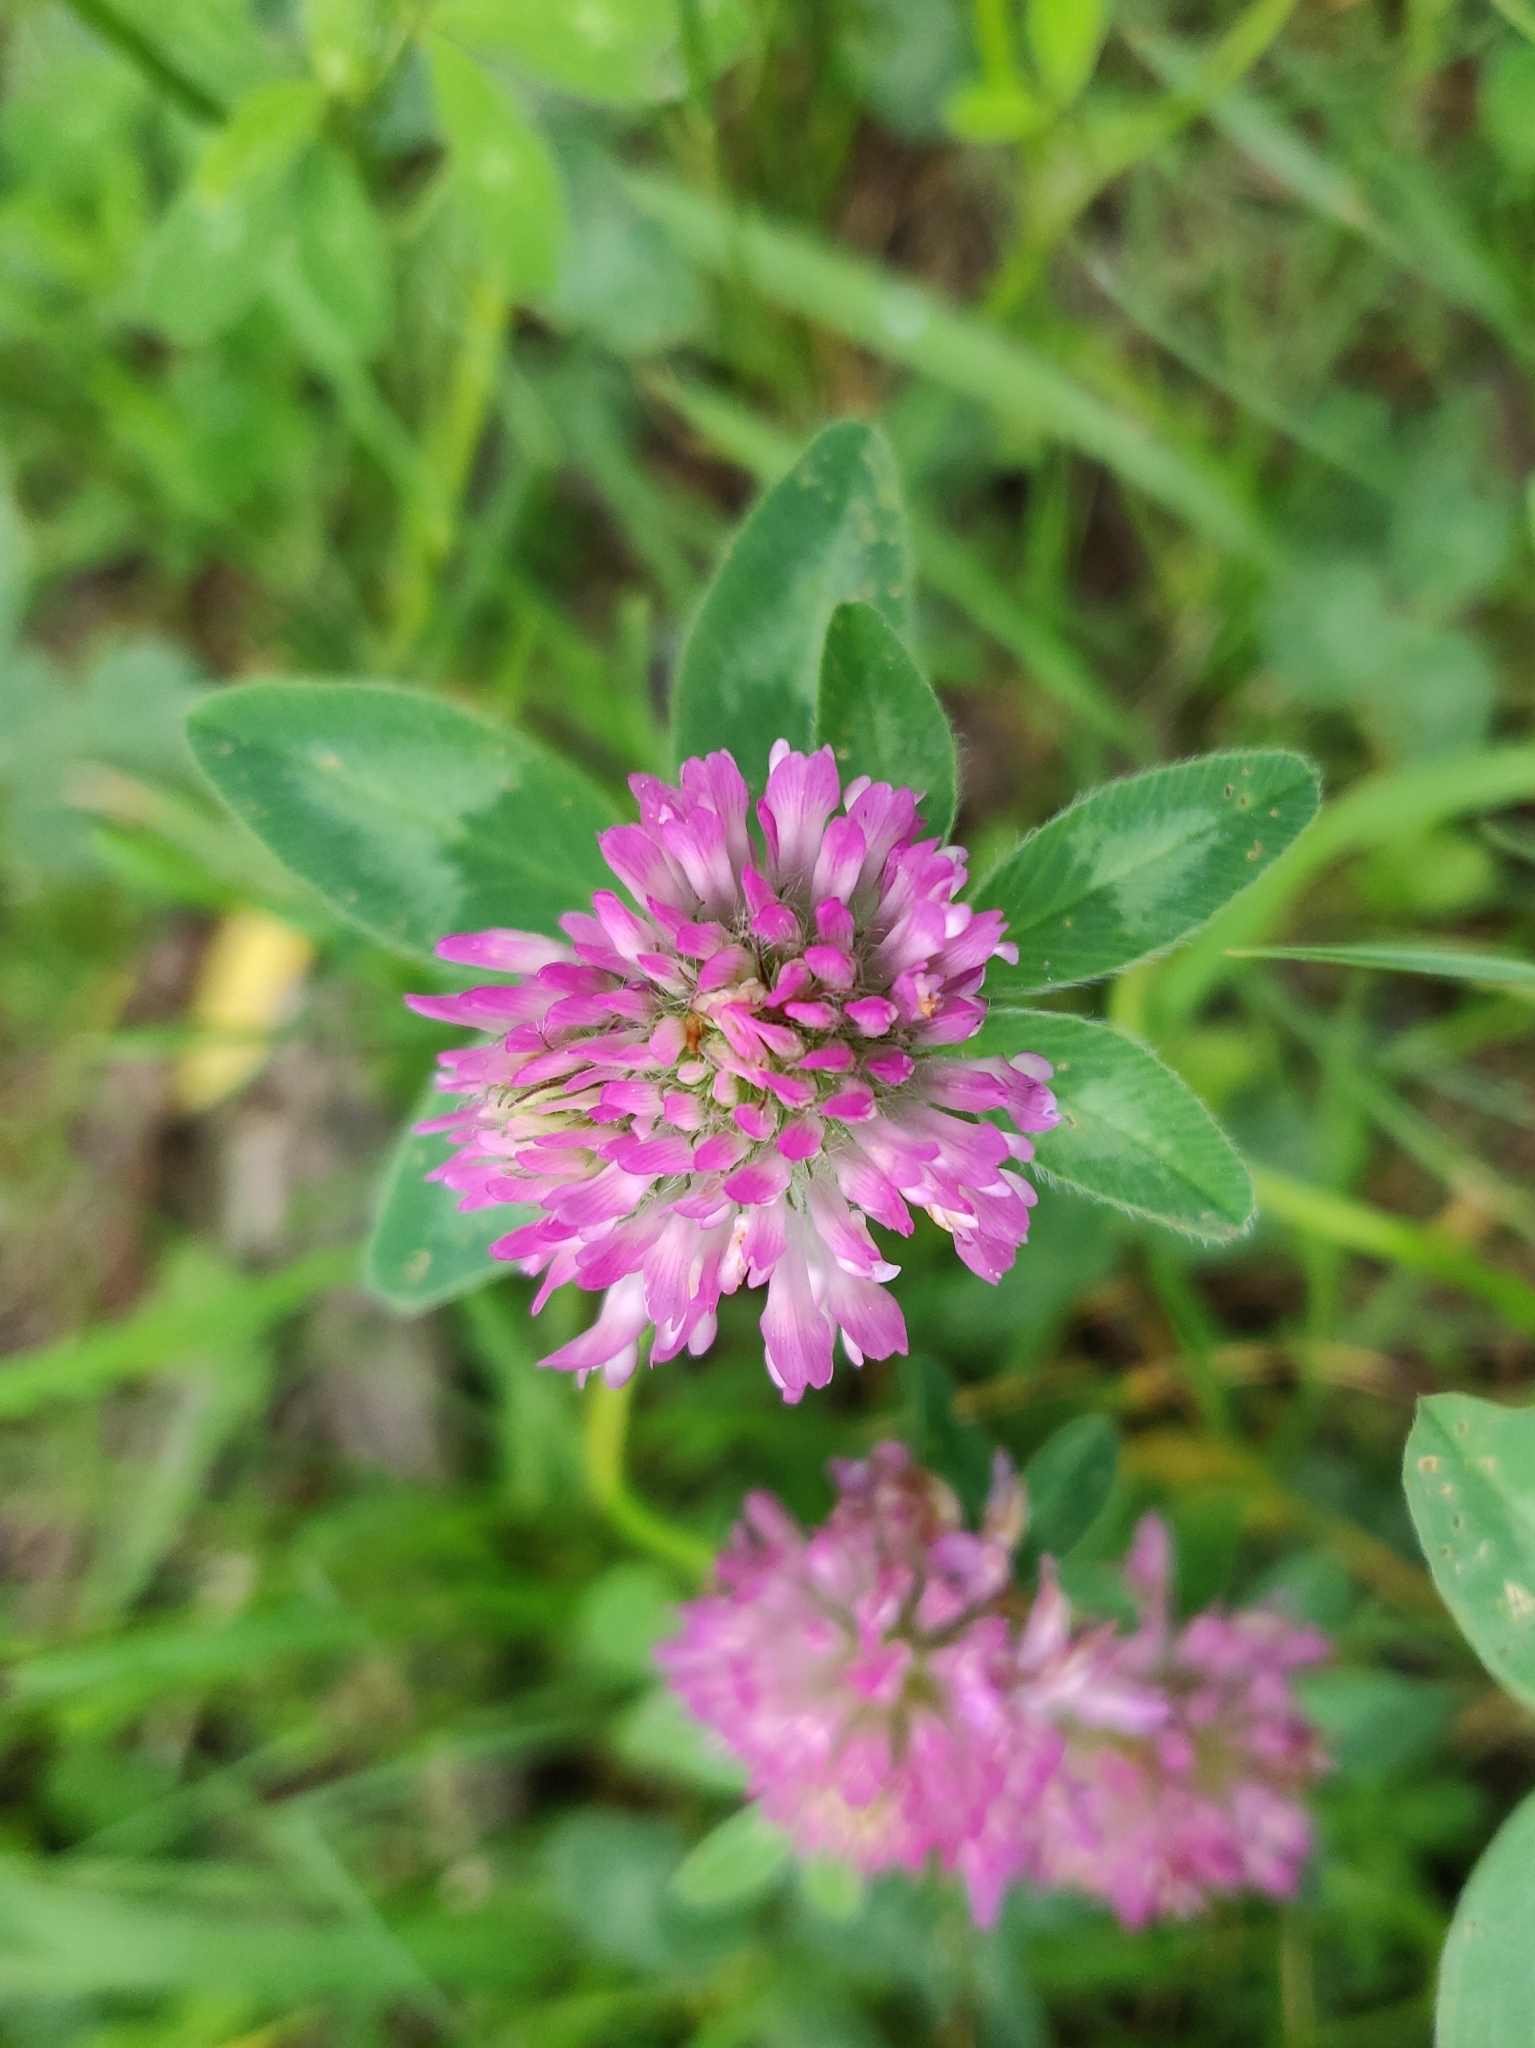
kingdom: Plantae
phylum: Tracheophyta
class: Magnoliopsida
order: Fabales
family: Fabaceae
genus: Trifolium
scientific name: Trifolium pratense
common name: Red clover
